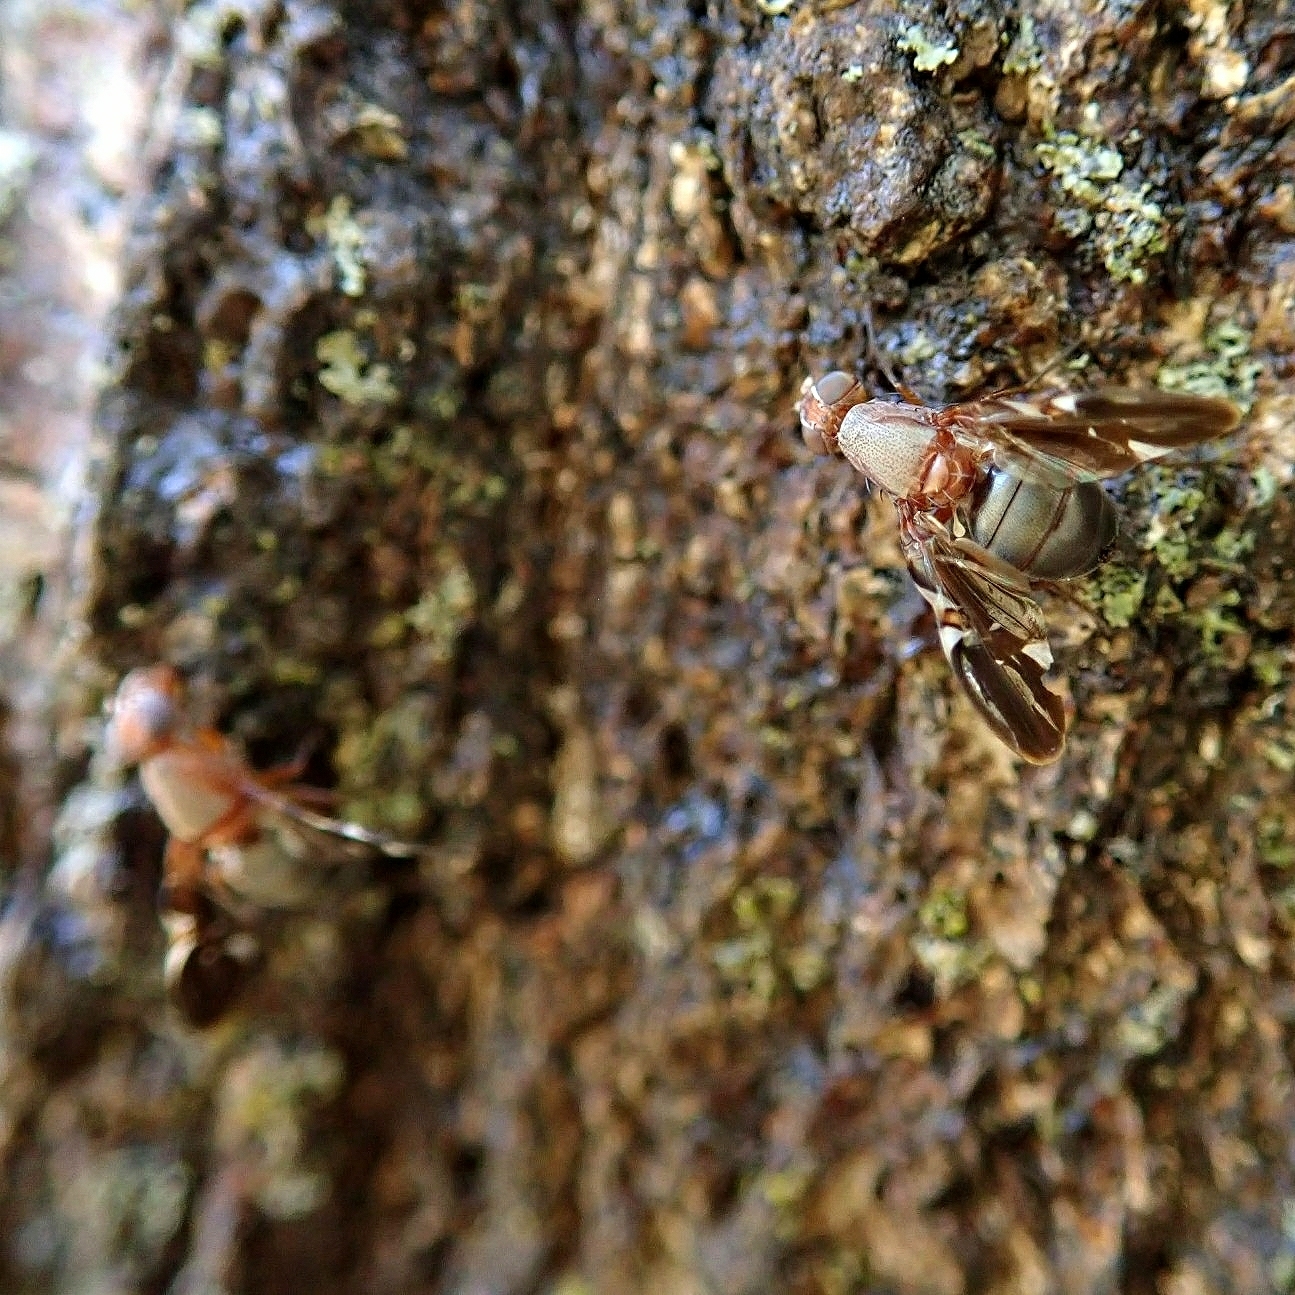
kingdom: Animalia
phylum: Arthropoda
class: Insecta
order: Diptera
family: Ulidiidae
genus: Delphinia
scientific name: Delphinia picta
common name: Common picture-winged fly
